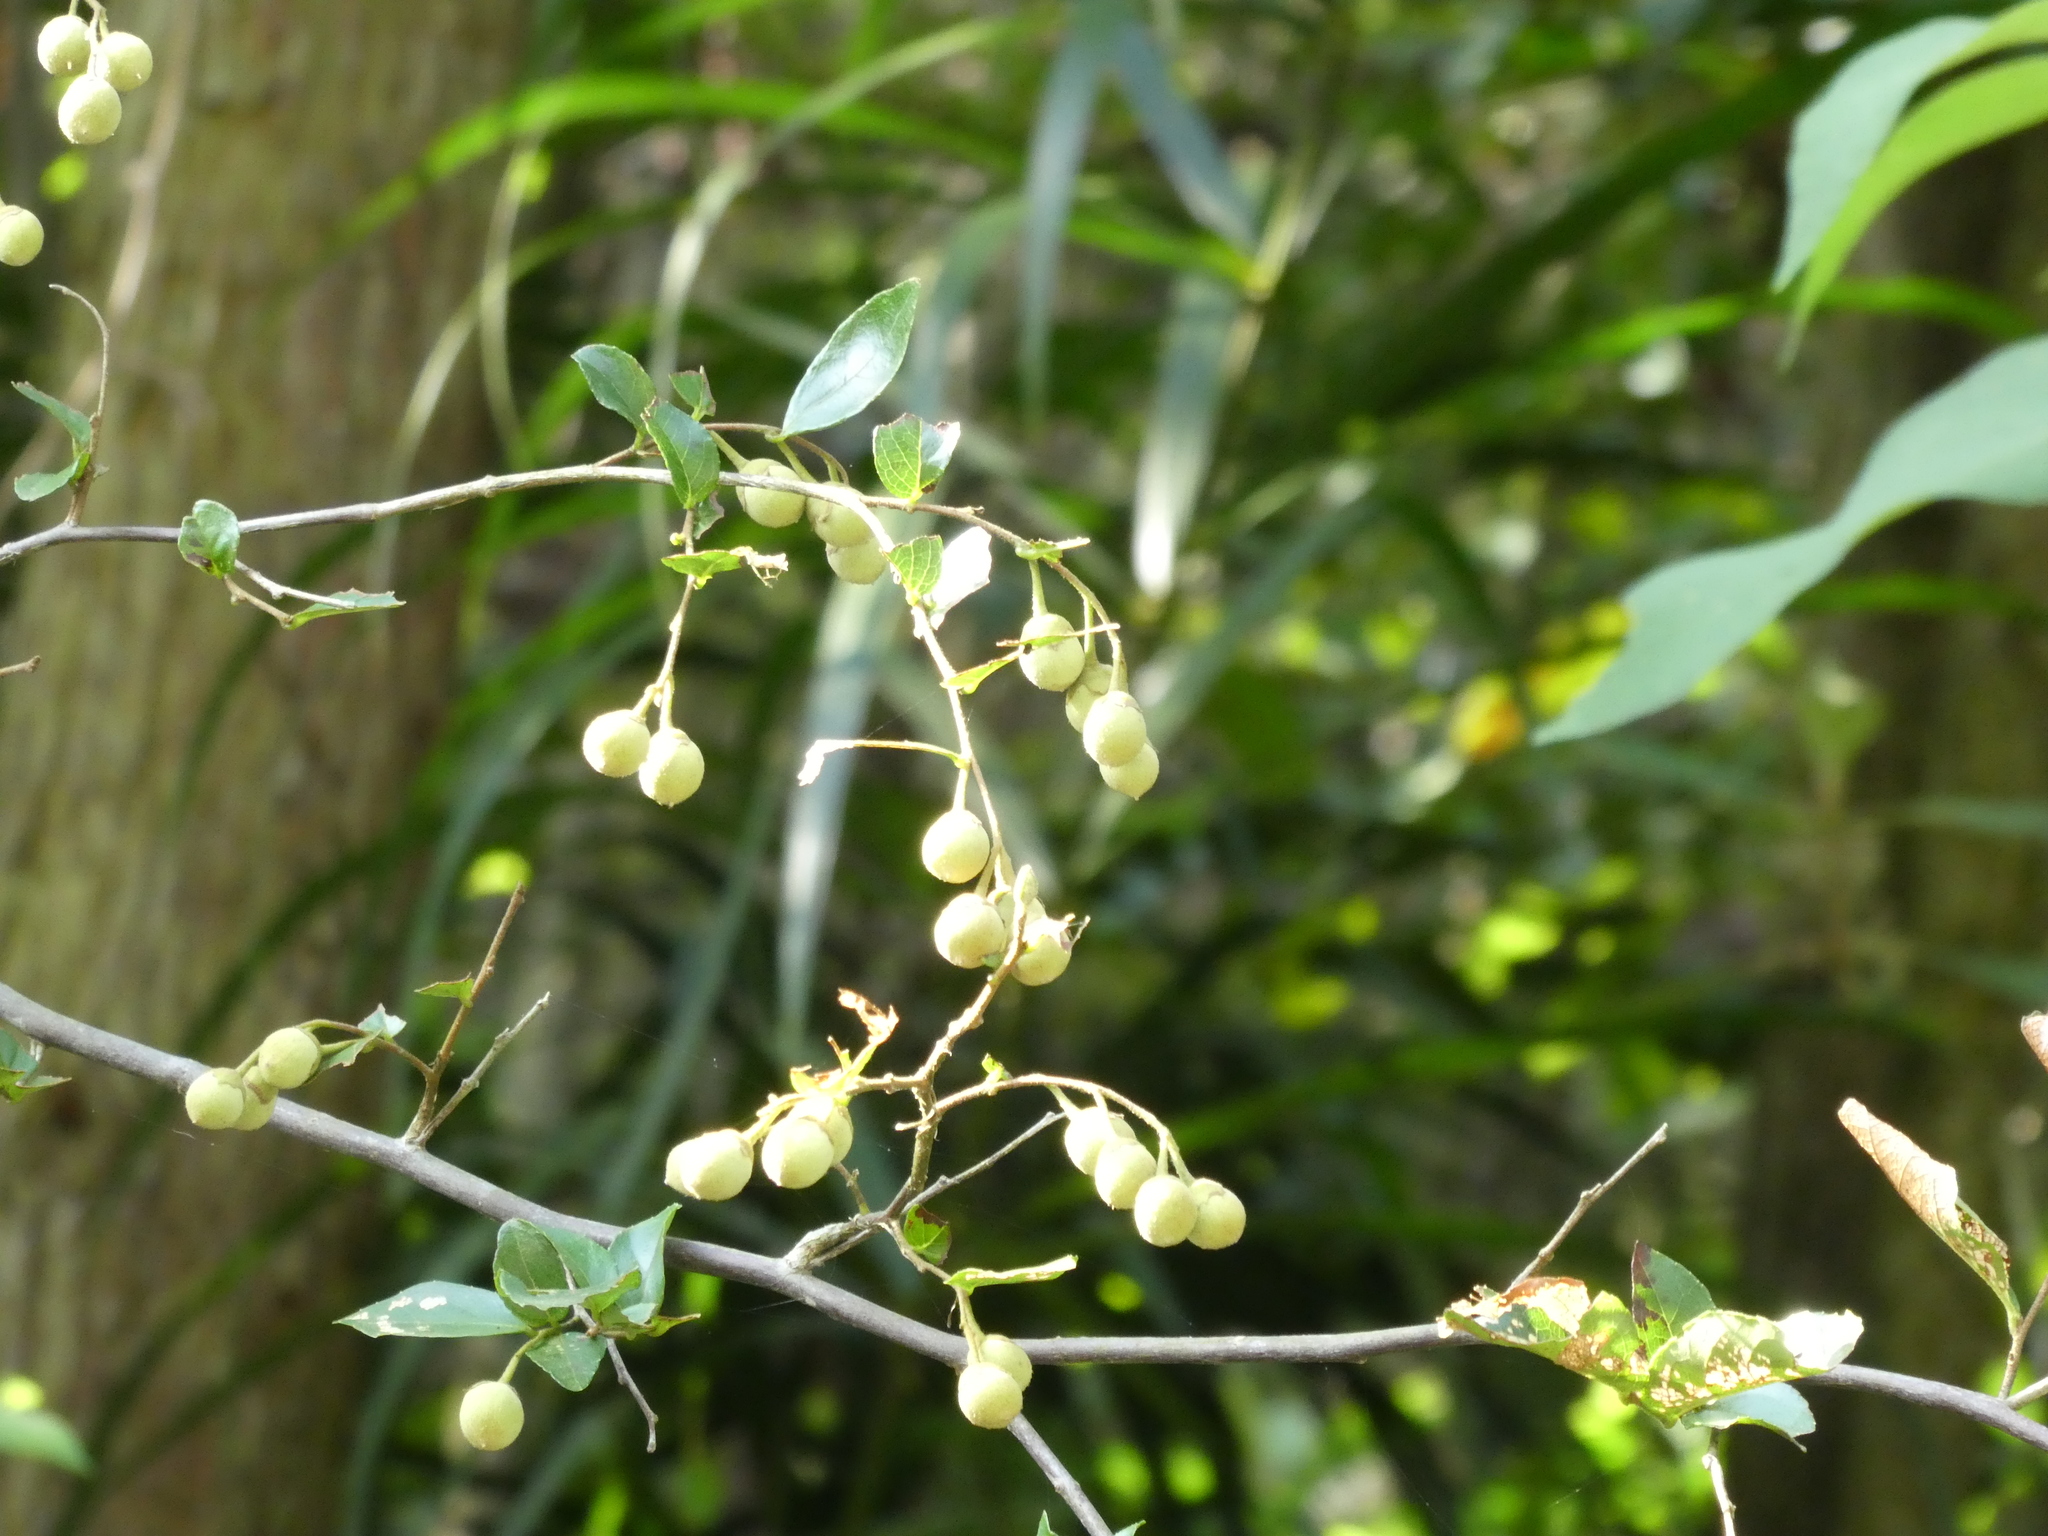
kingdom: Plantae
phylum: Tracheophyta
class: Magnoliopsida
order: Ericales
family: Styracaceae
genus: Styrax
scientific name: Styrax faberi
